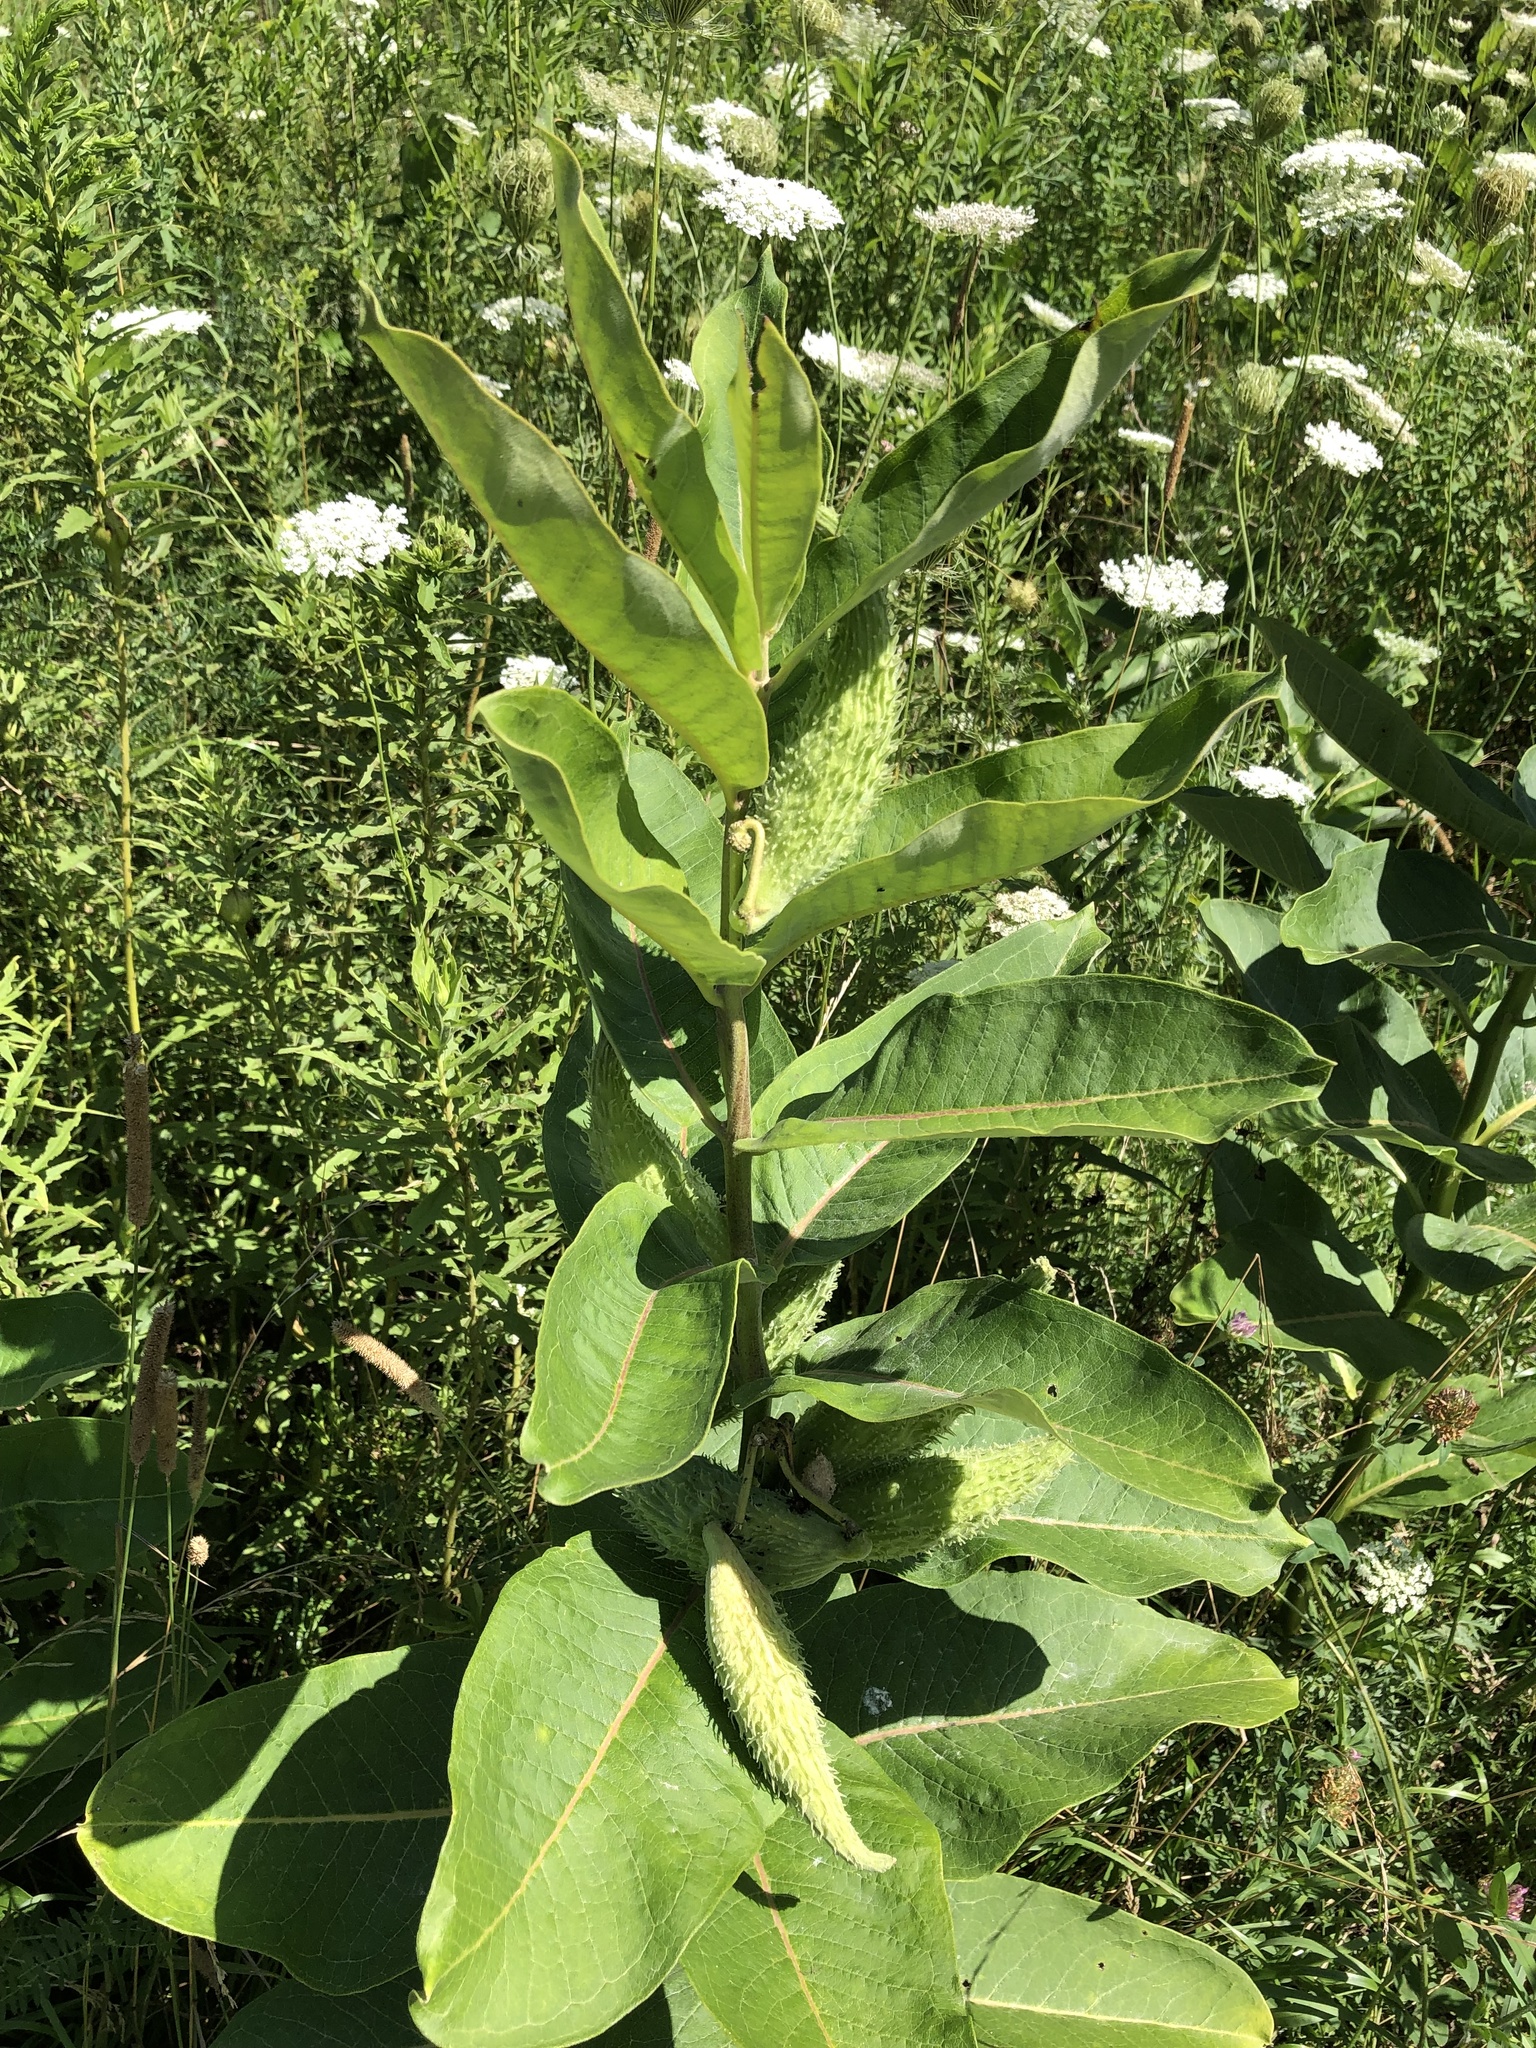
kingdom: Plantae
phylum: Tracheophyta
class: Magnoliopsida
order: Gentianales
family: Apocynaceae
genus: Asclepias
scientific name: Asclepias syriaca
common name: Common milkweed
